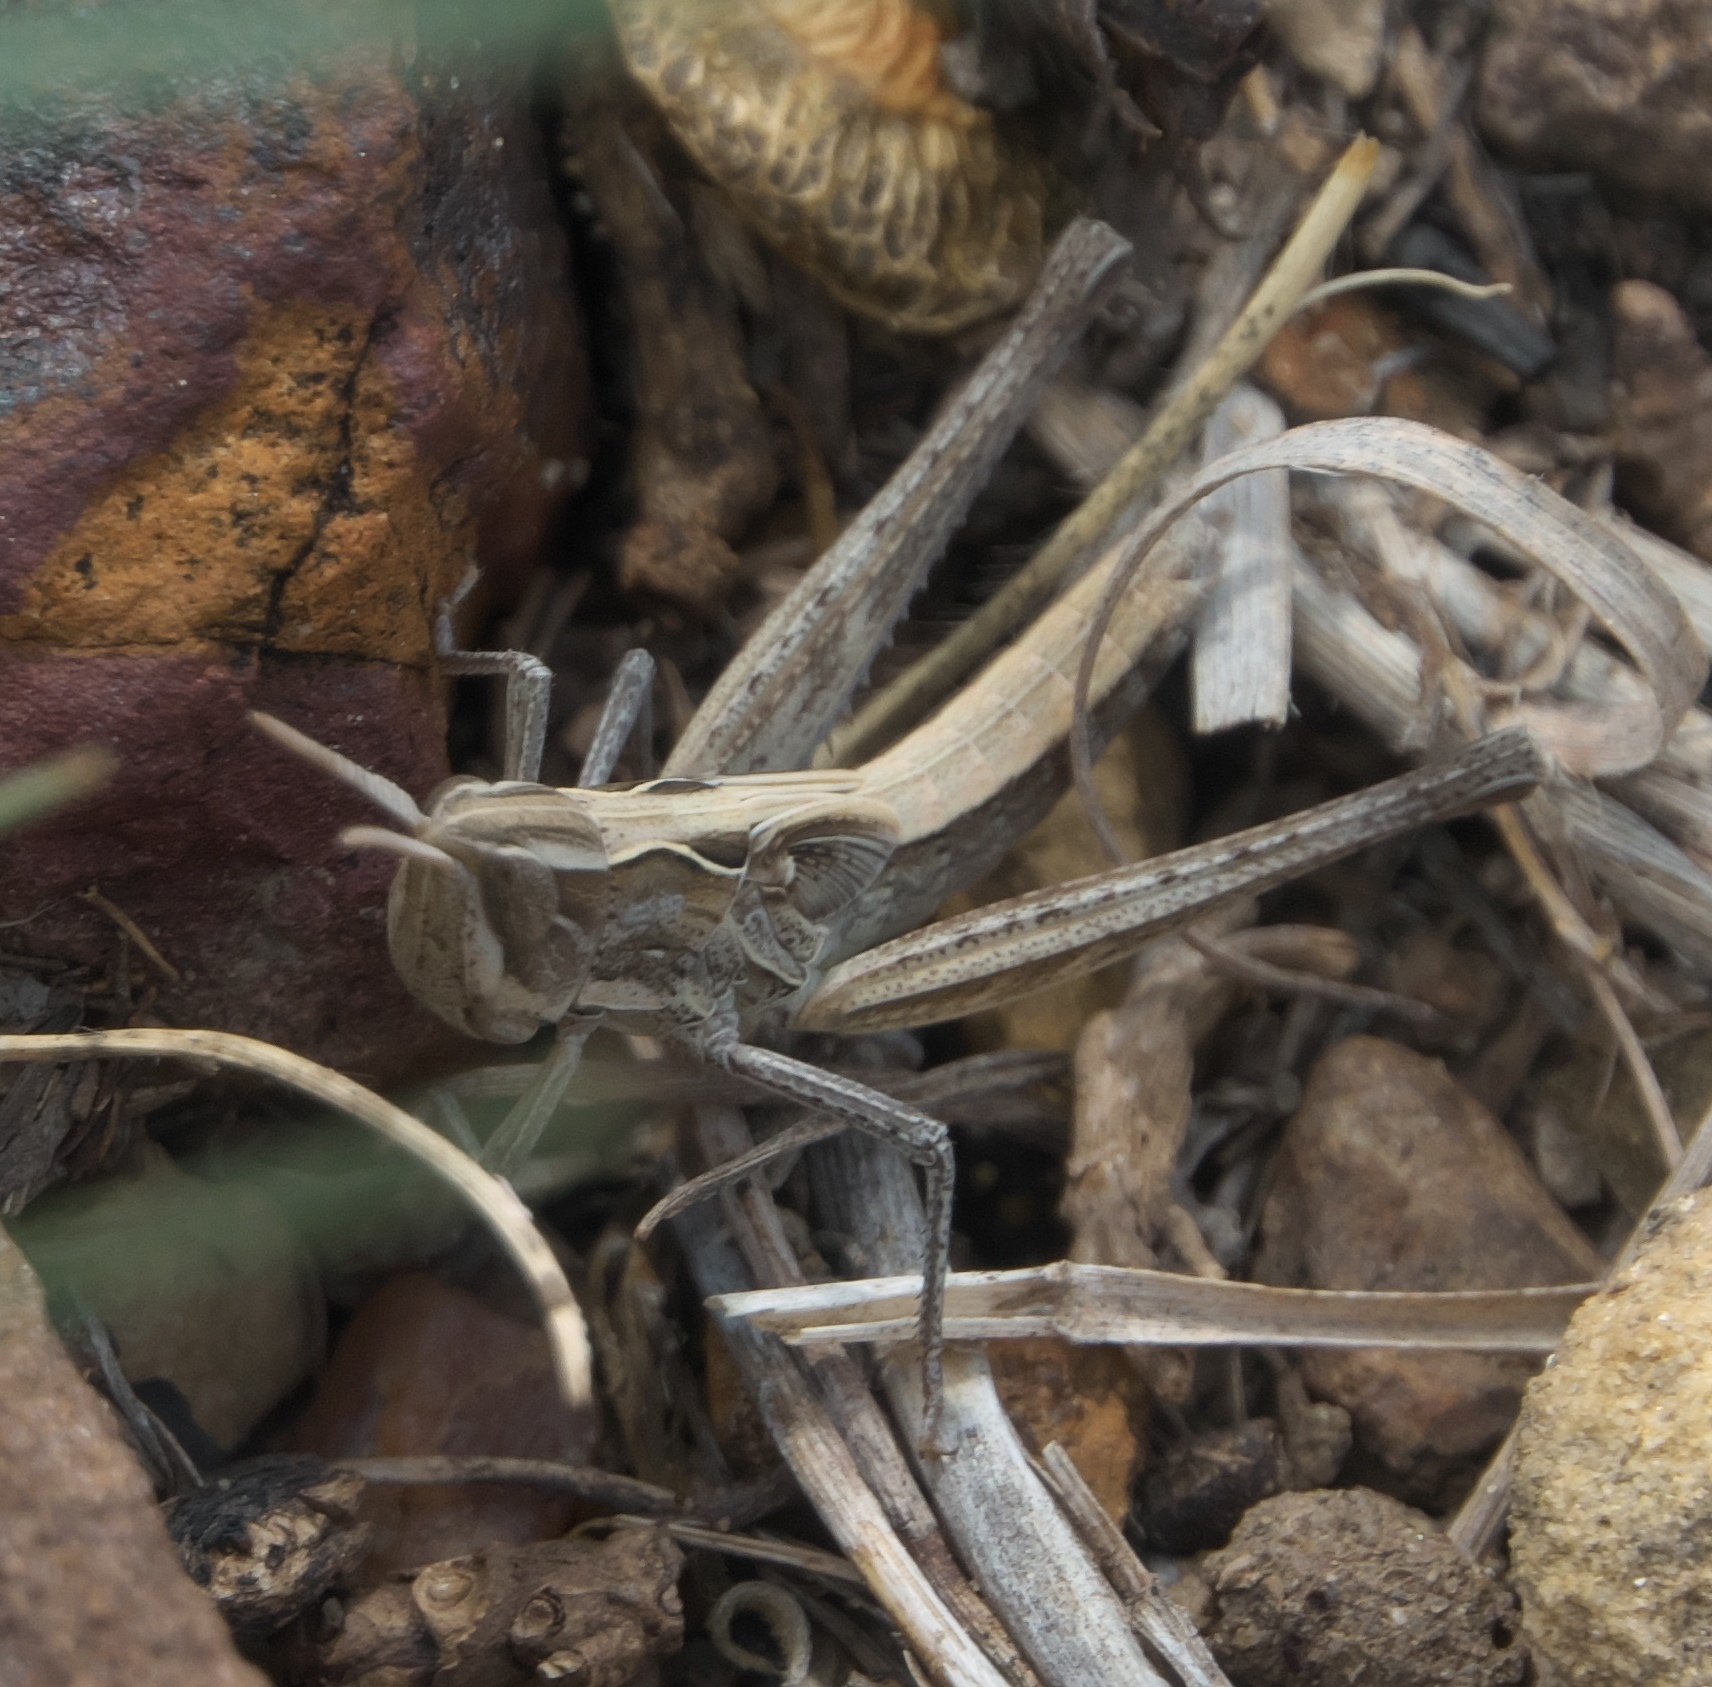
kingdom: Animalia
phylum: Arthropoda
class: Insecta
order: Orthoptera
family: Acrididae
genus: Syrbula
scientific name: Syrbula montezuma
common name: Montezuma's grasshopper
